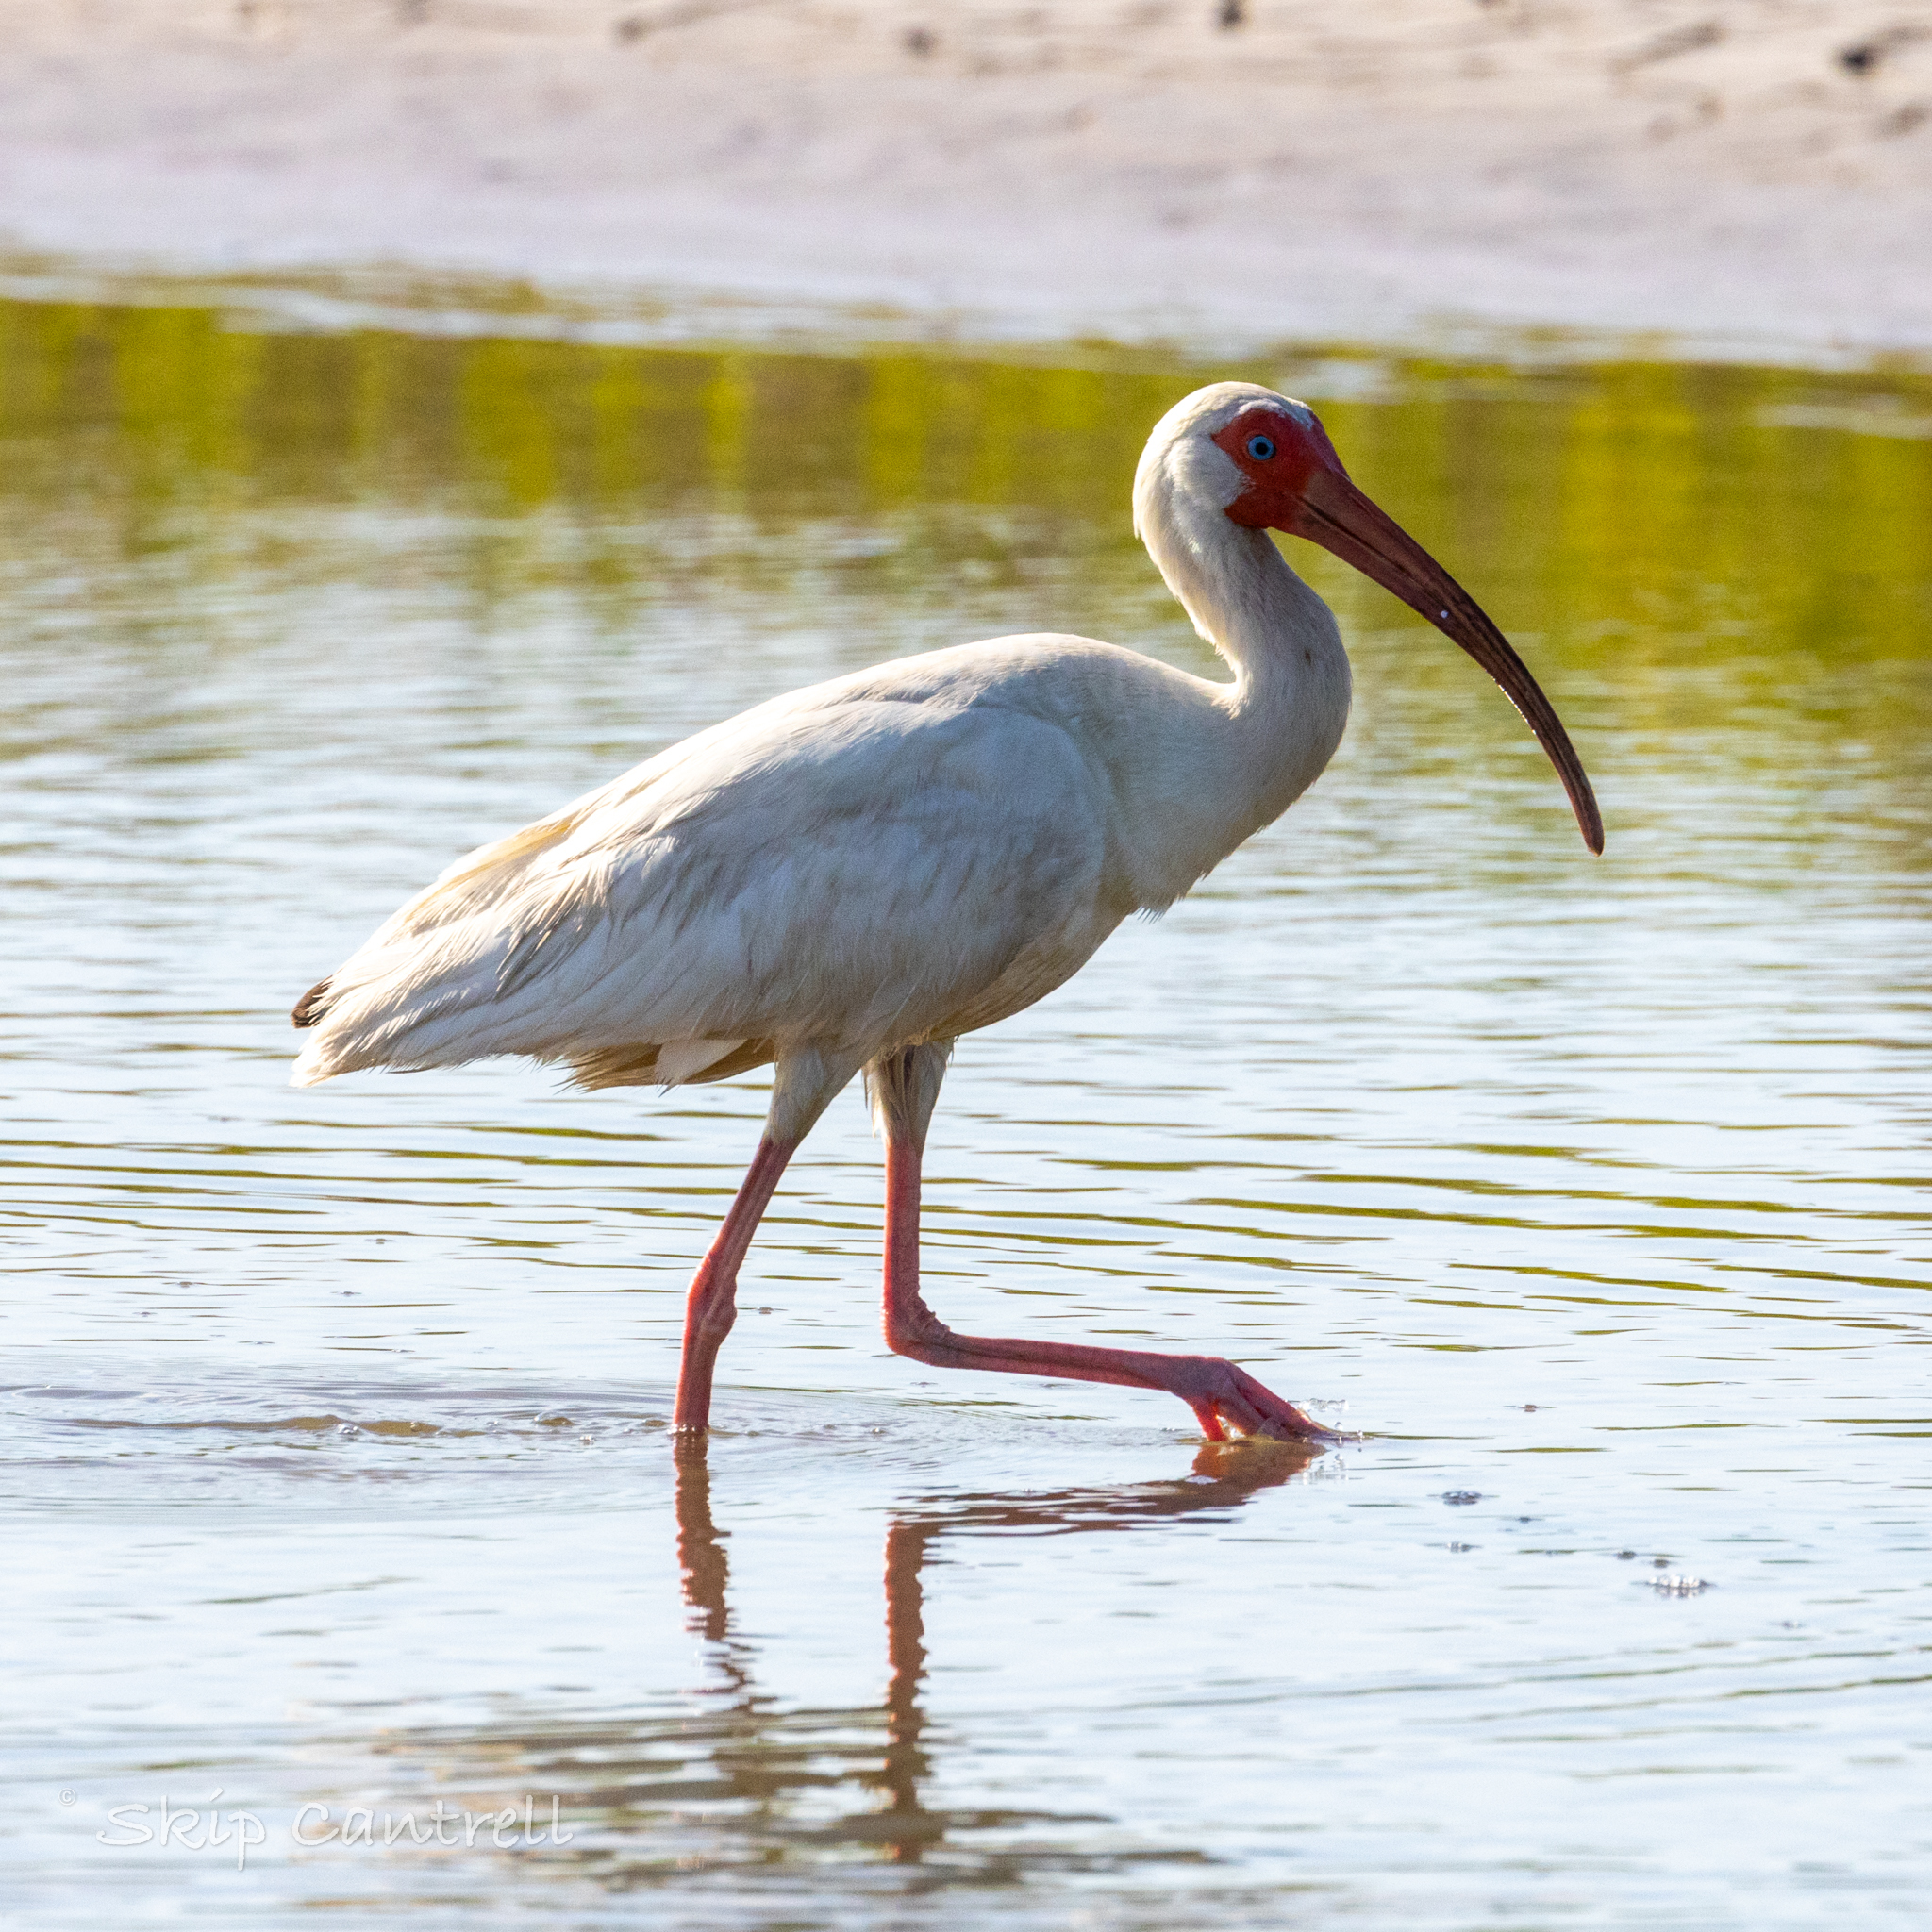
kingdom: Animalia
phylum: Chordata
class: Aves
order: Pelecaniformes
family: Threskiornithidae
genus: Eudocimus
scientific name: Eudocimus albus
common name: White ibis
